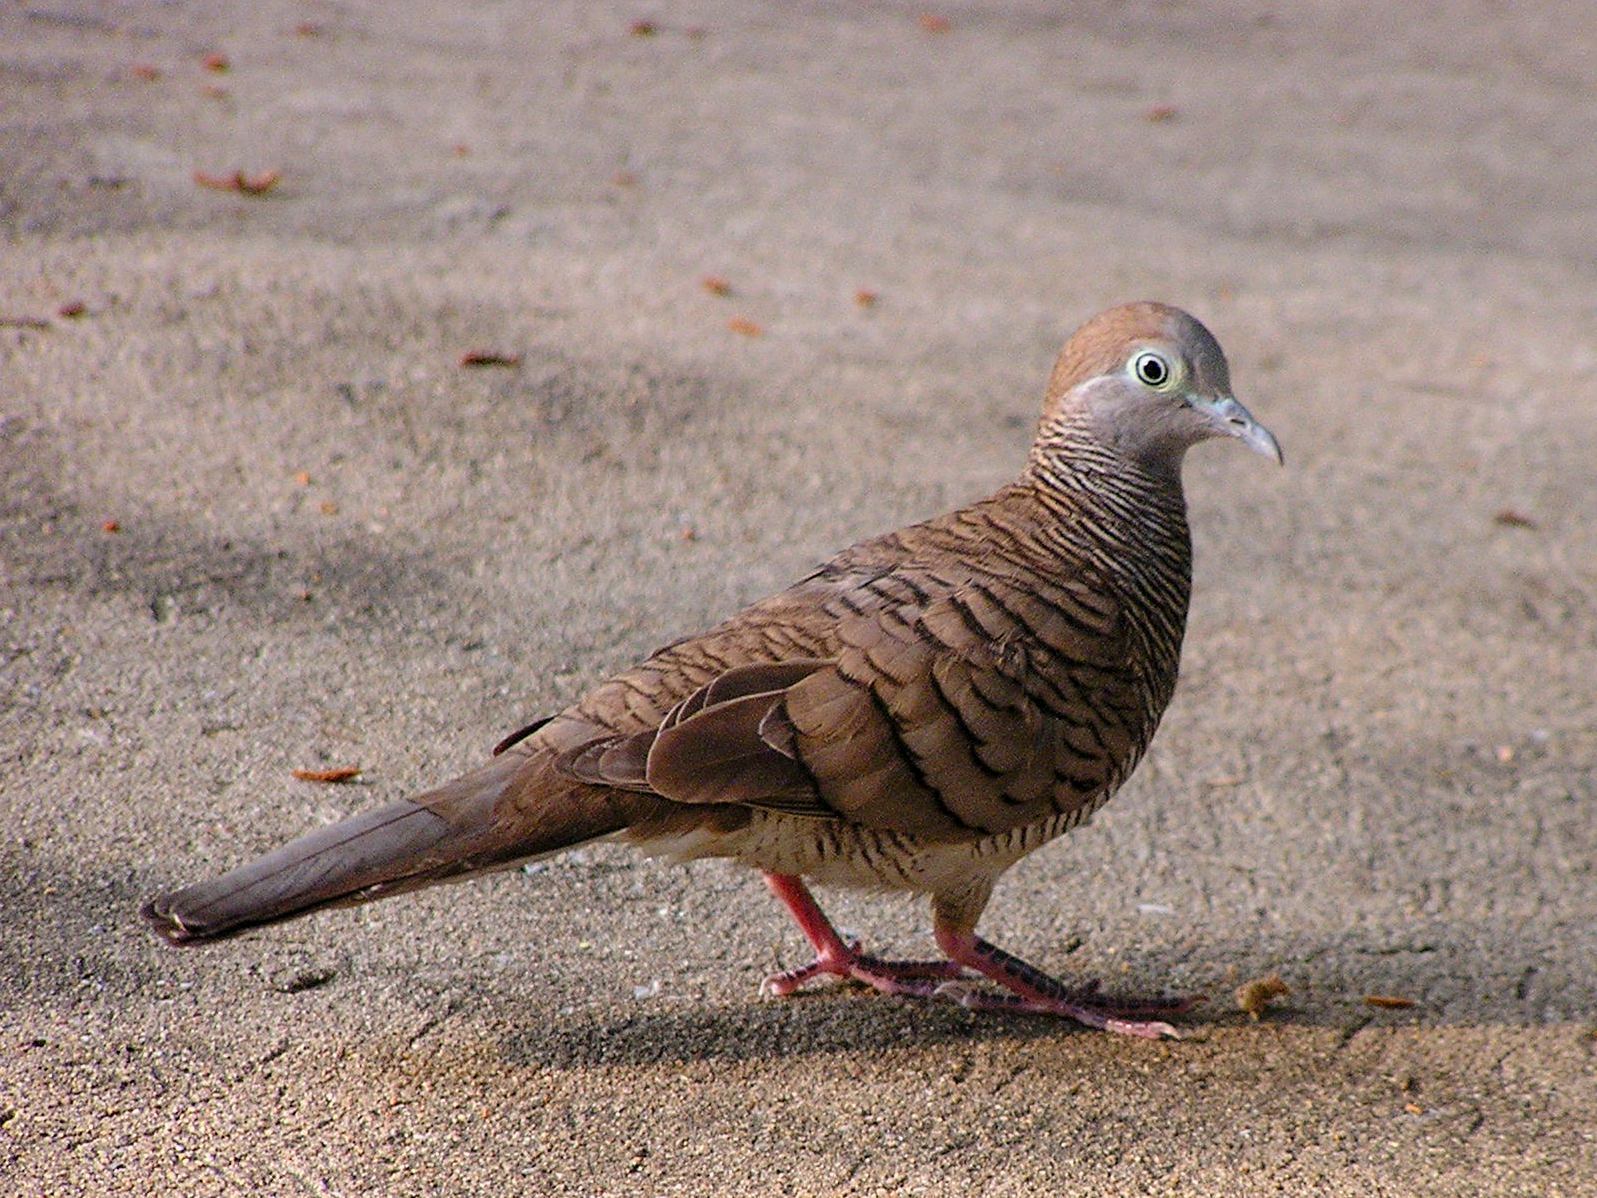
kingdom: Animalia
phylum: Chordata
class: Aves
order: Columbiformes
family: Columbidae
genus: Geopelia
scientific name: Geopelia striata
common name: Zebra dove
